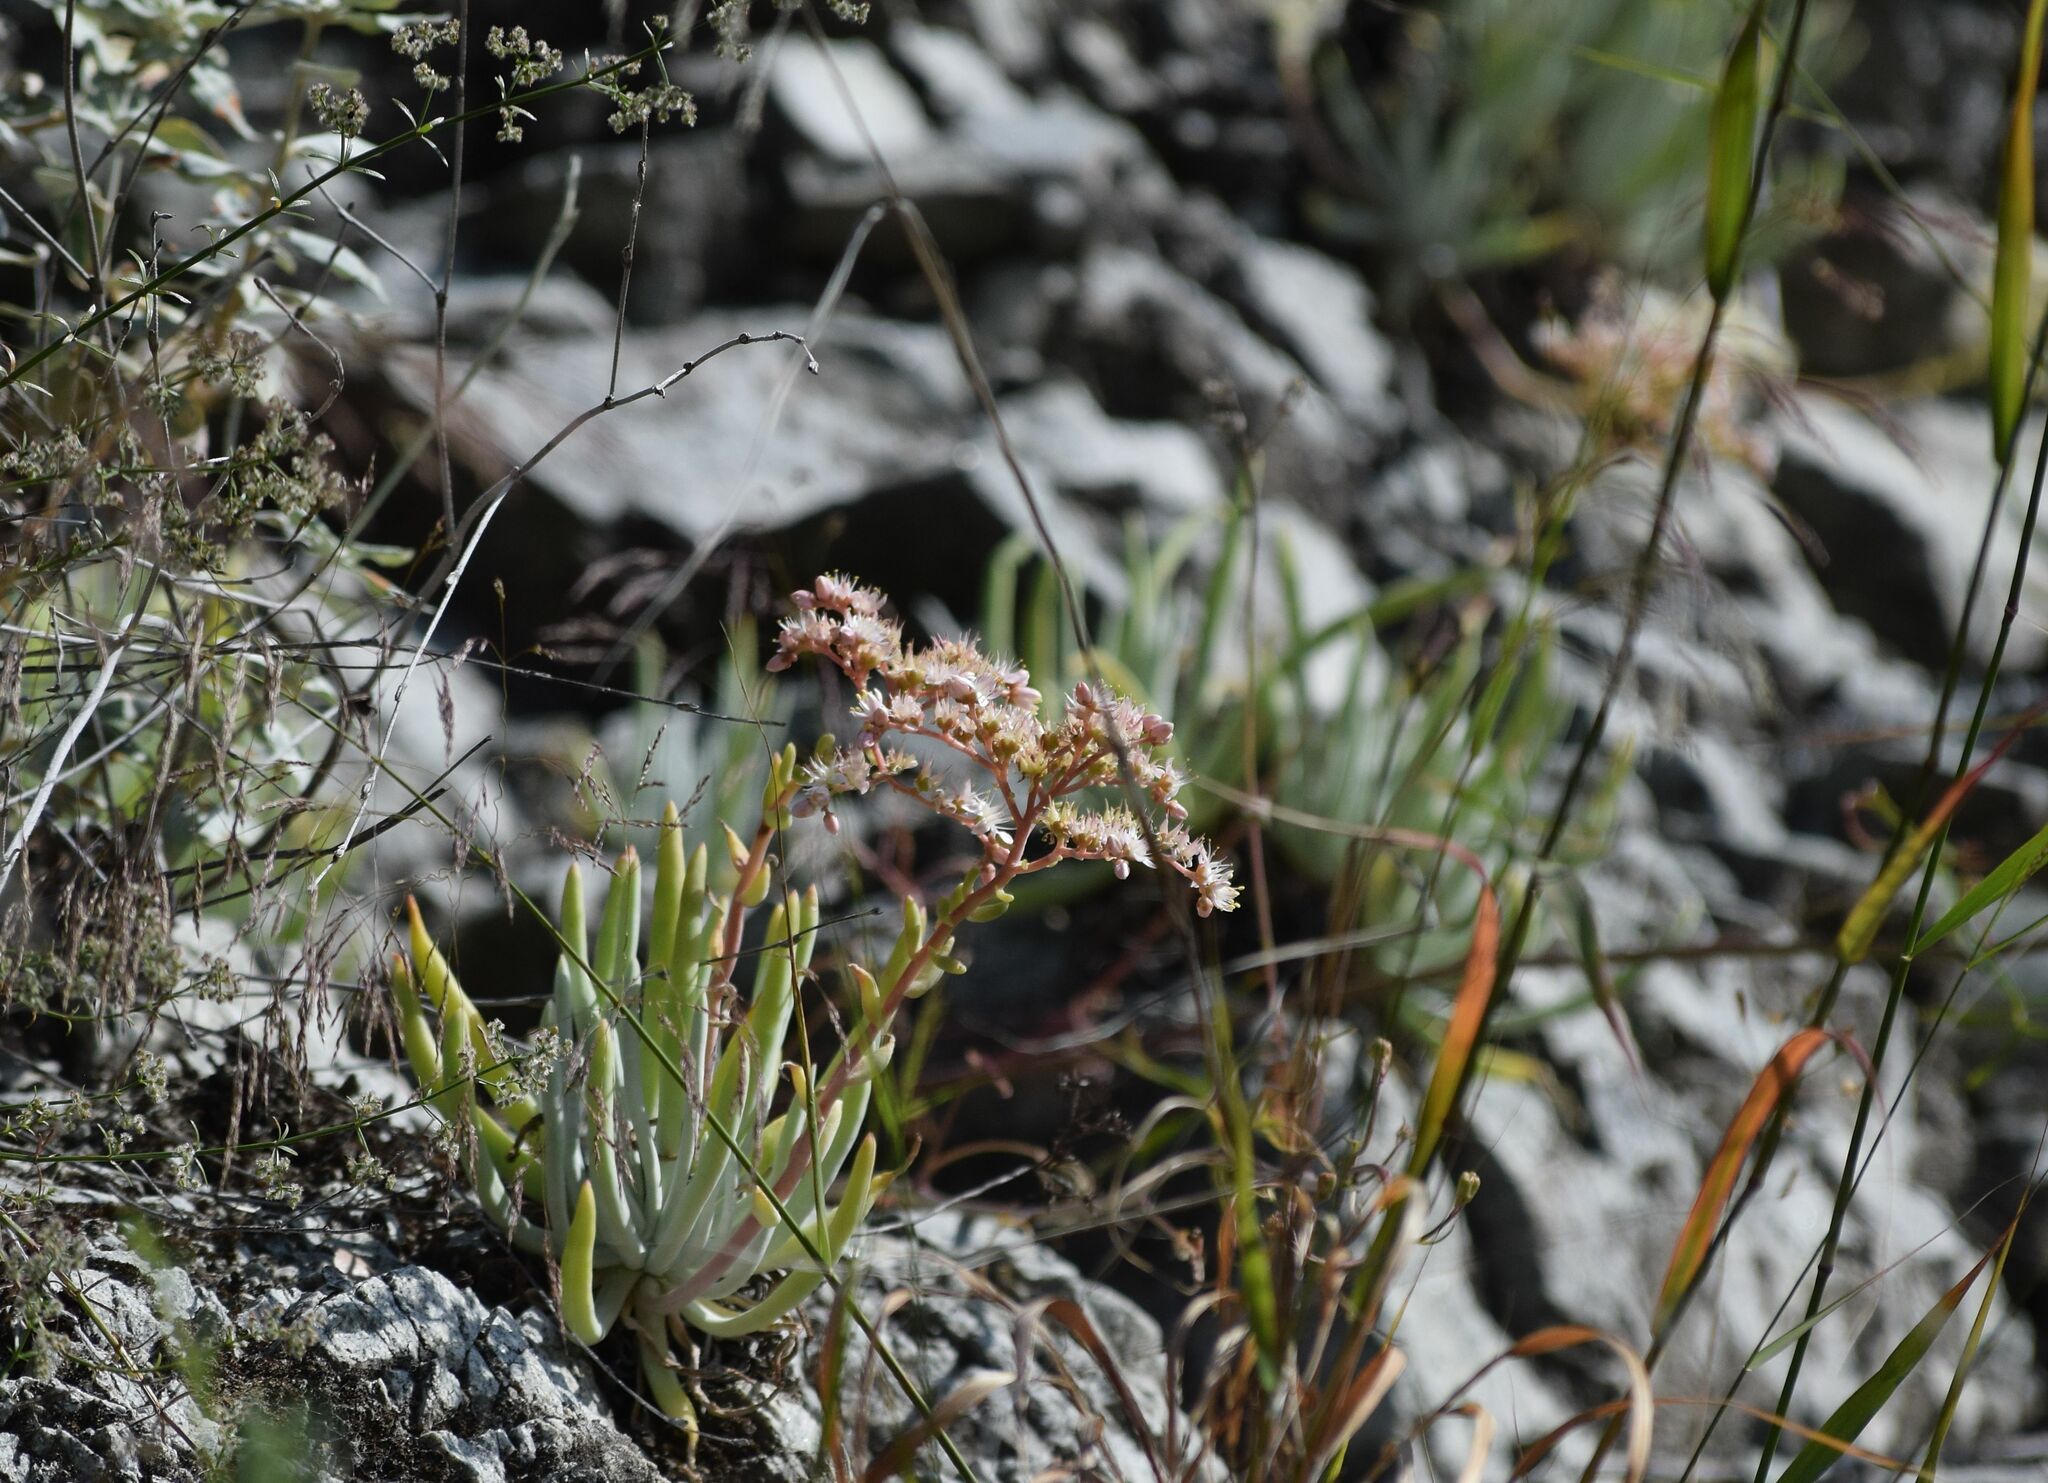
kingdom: Plantae
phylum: Tracheophyta
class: Magnoliopsida
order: Saxifragales
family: Crassulaceae
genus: Dudleya
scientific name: Dudleya densiflora
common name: San gabriel mountains dudleya
